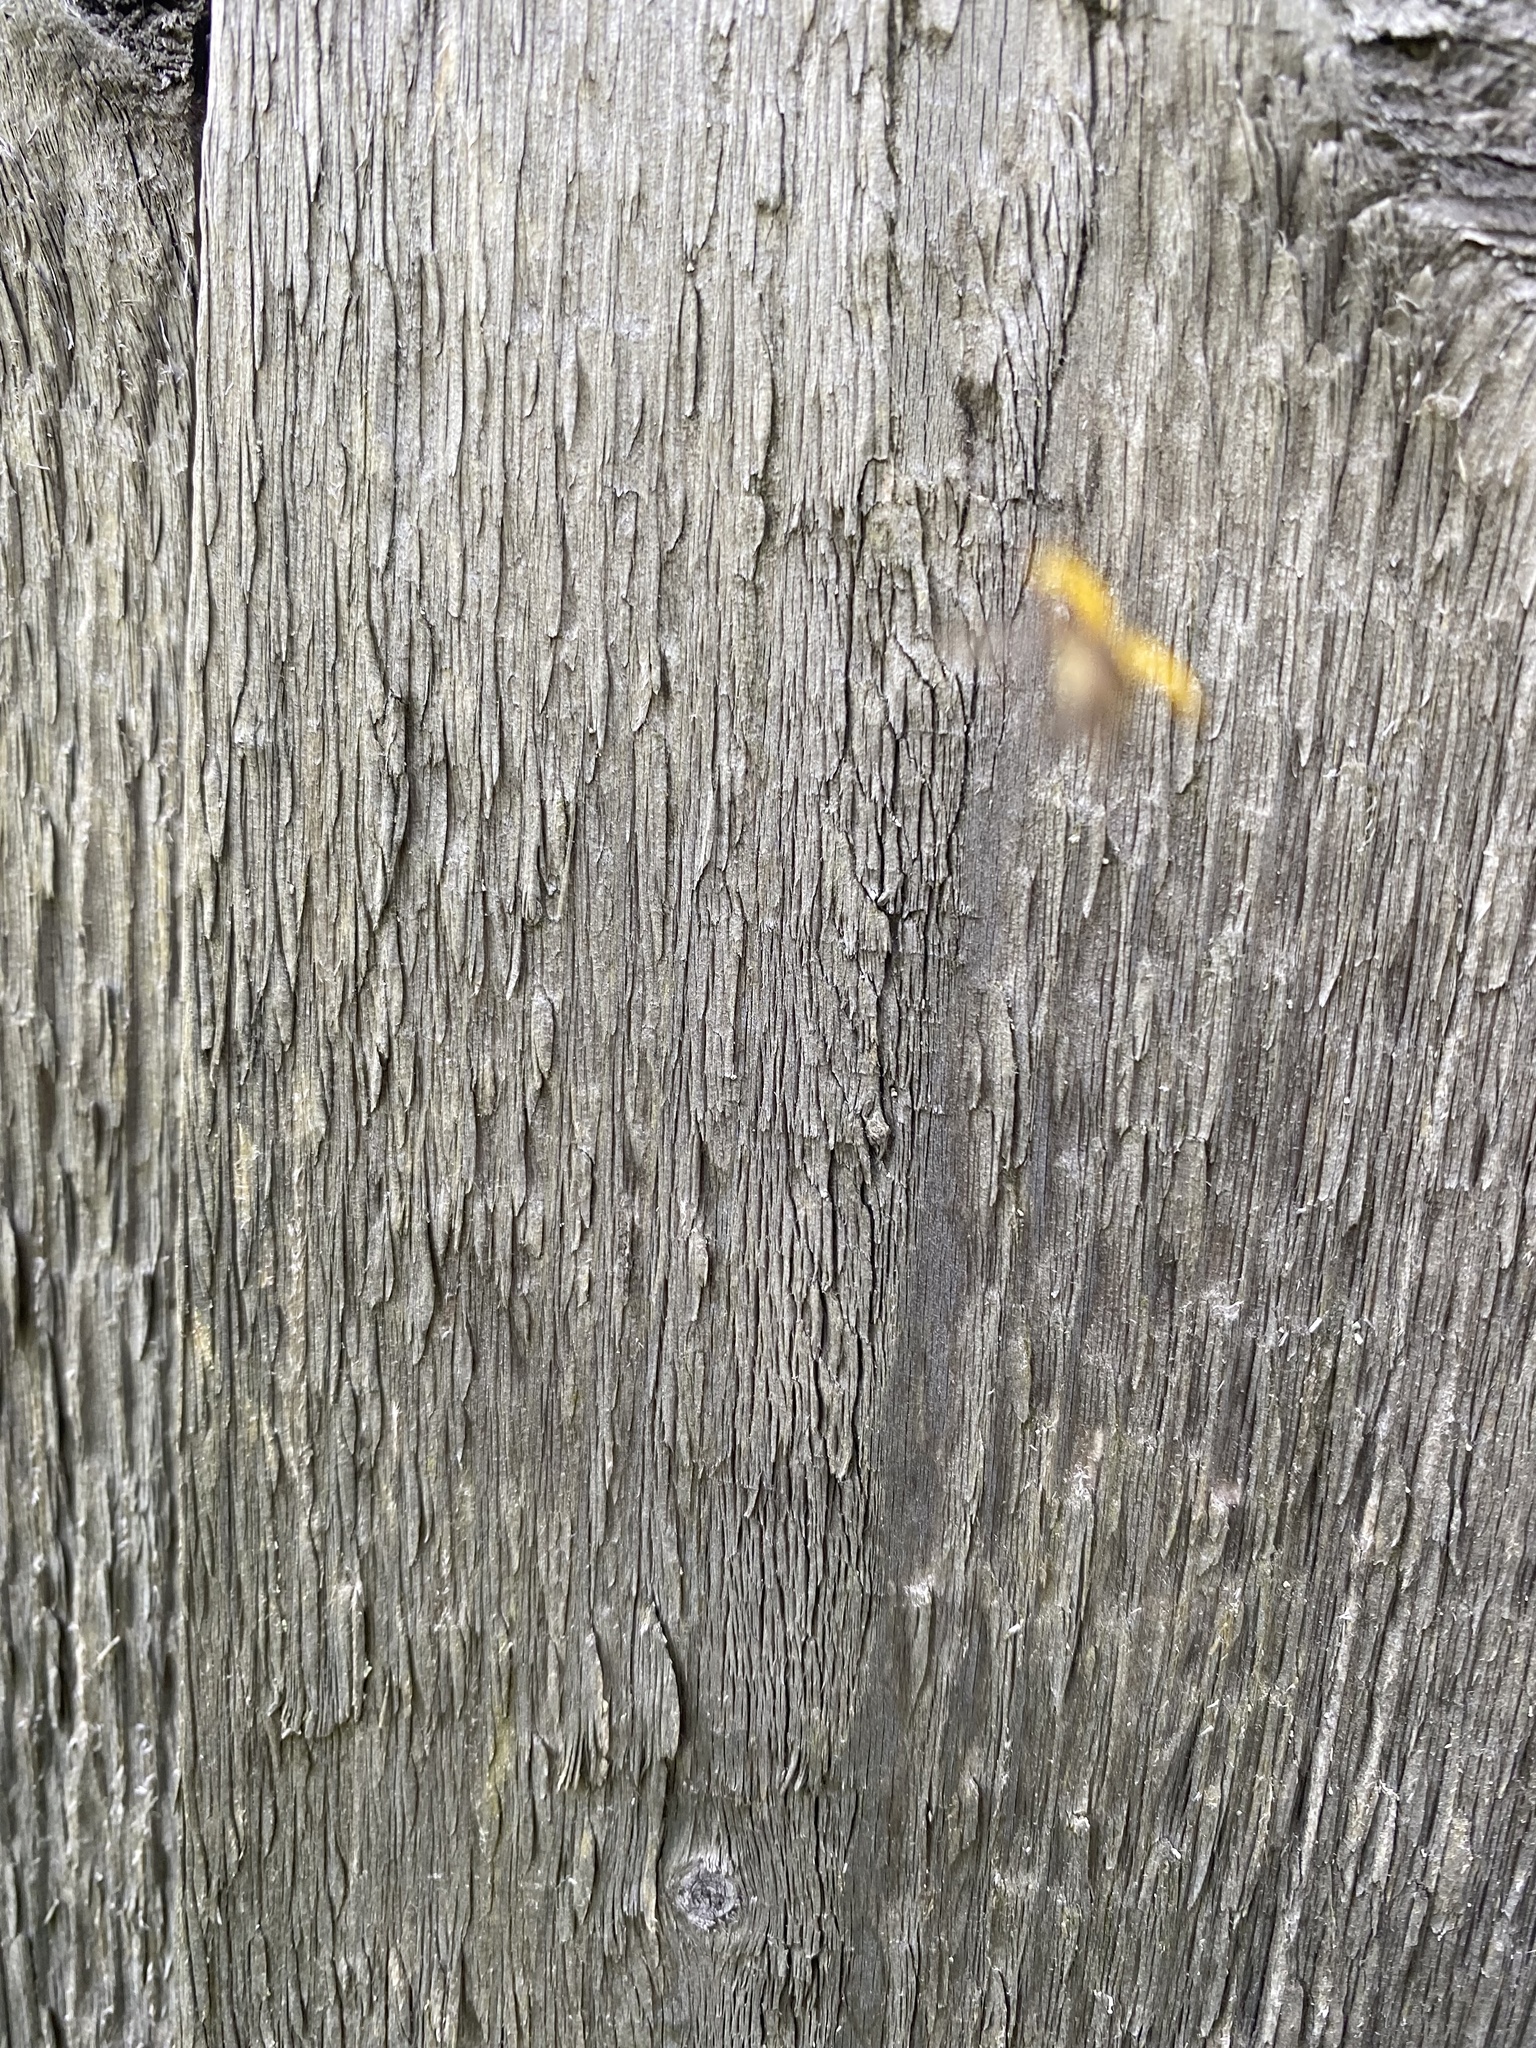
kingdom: Animalia
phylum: Arthropoda
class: Insecta
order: Coleoptera
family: Coccinellidae
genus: Psyllobora
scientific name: Psyllobora vigintiduopunctata
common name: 22-spot ladybird
